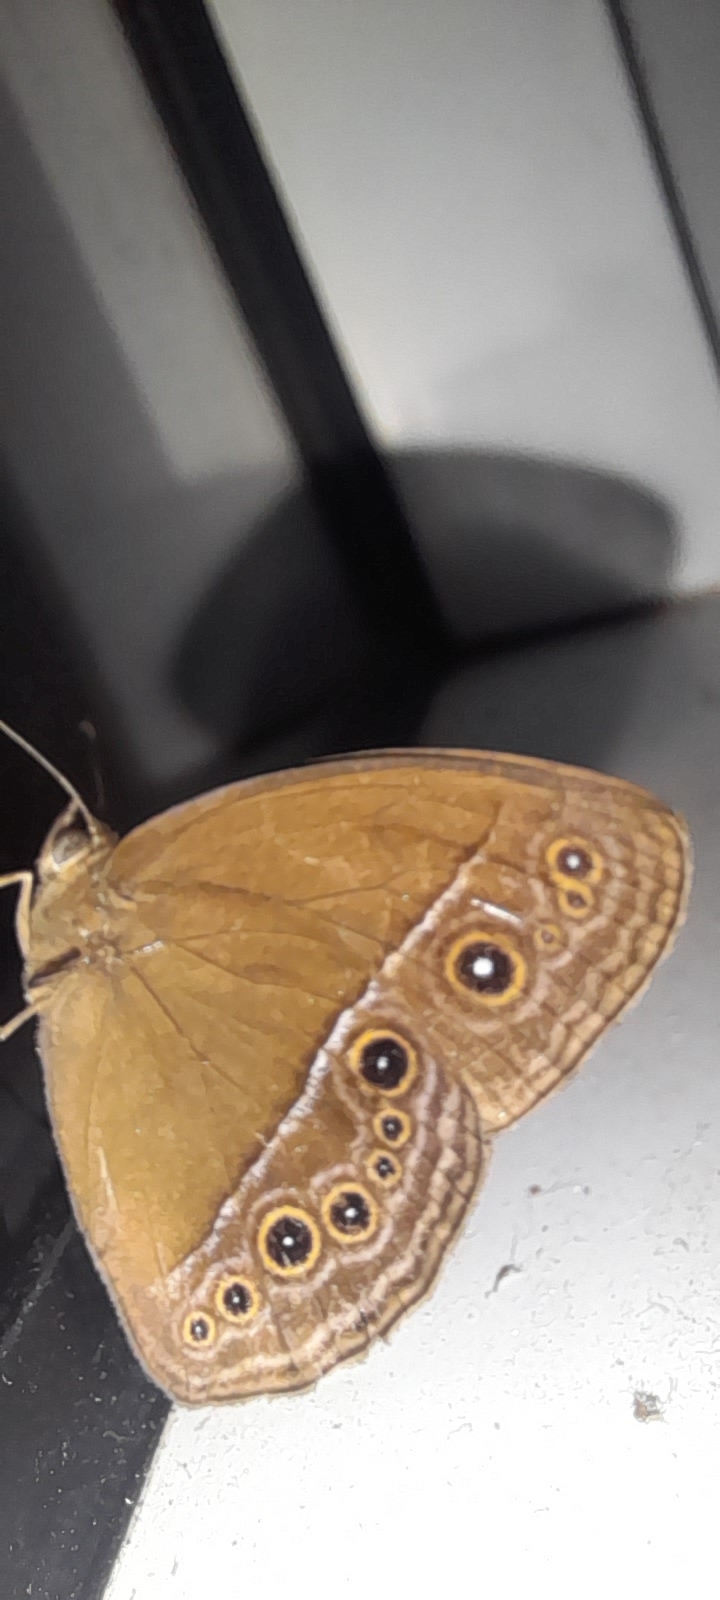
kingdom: Animalia
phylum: Arthropoda
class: Insecta
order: Lepidoptera
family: Nymphalidae
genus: Mycalesis
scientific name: Mycalesis perseus
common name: Dingy bushbrown
